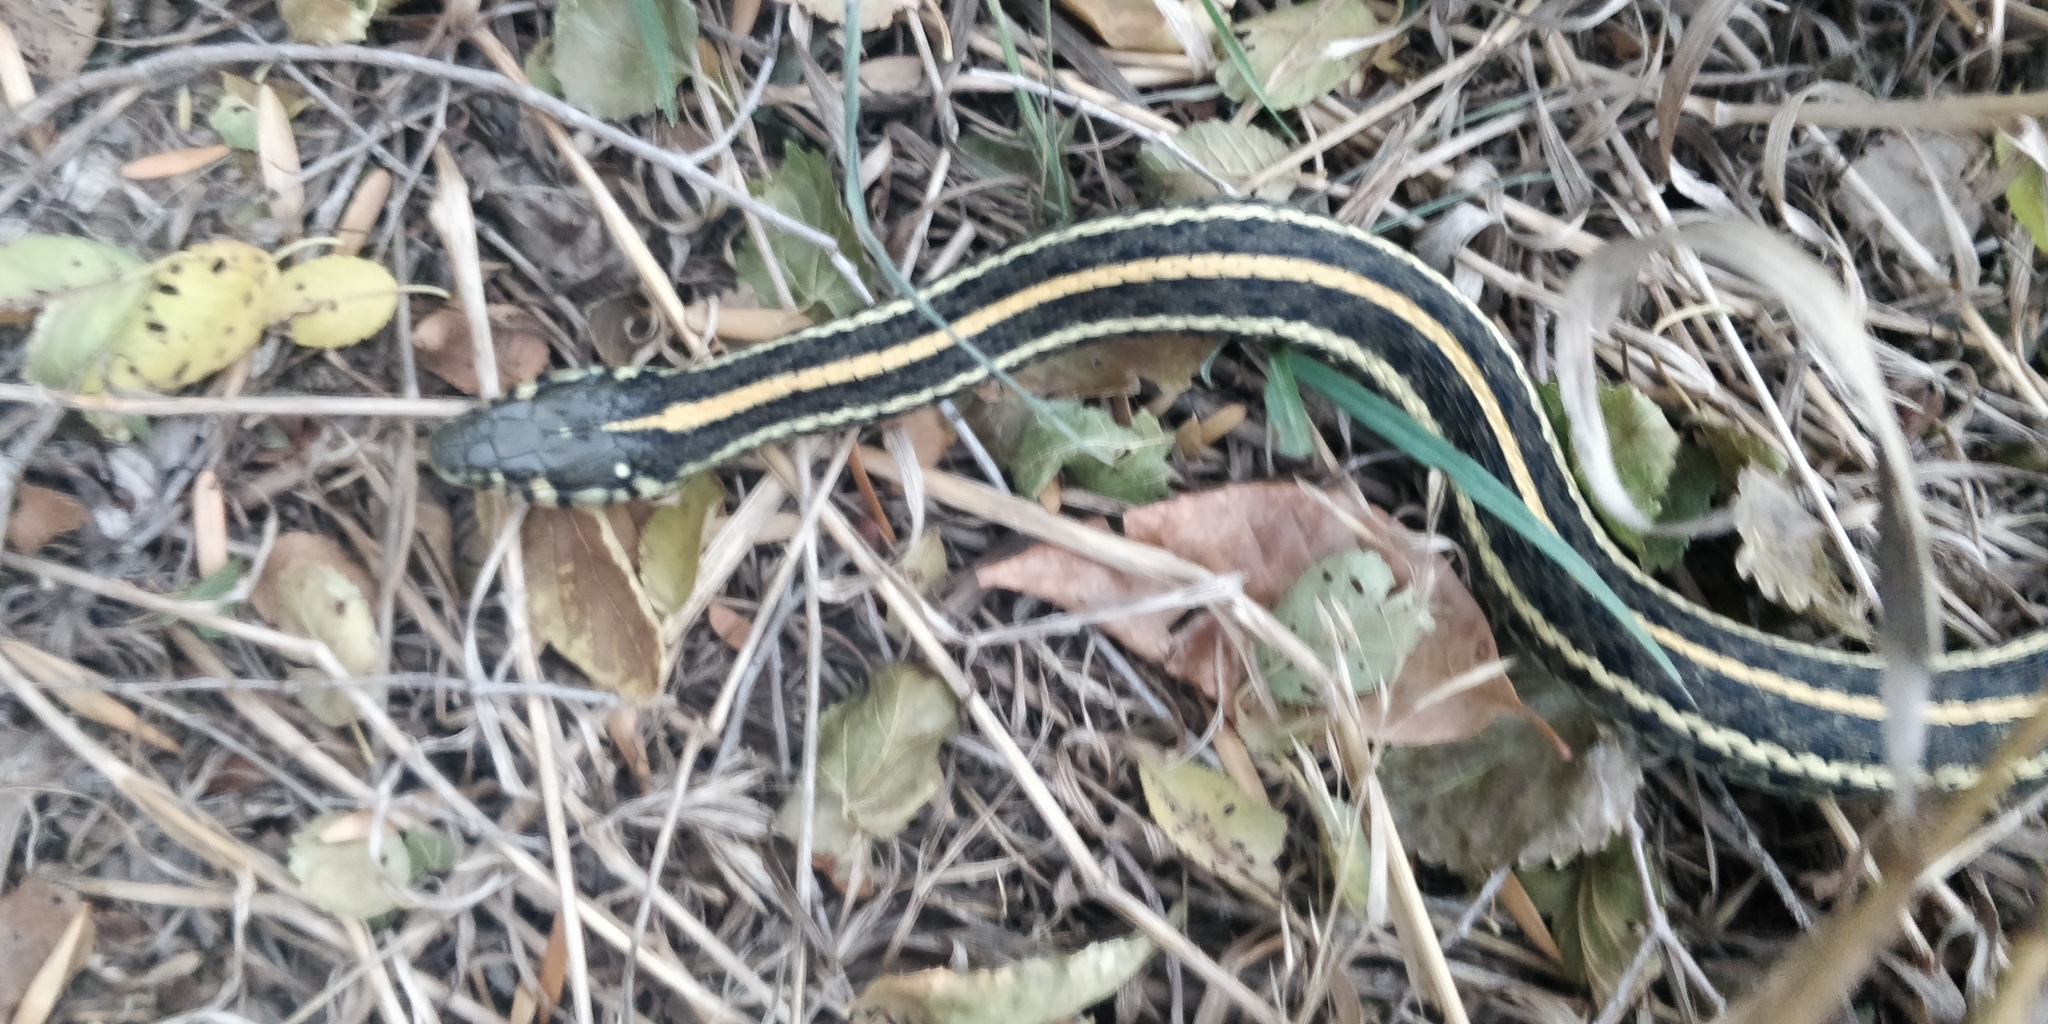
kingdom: Animalia
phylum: Chordata
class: Squamata
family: Colubridae
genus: Thamnophis
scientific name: Thamnophis radix
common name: Plains garter snake
